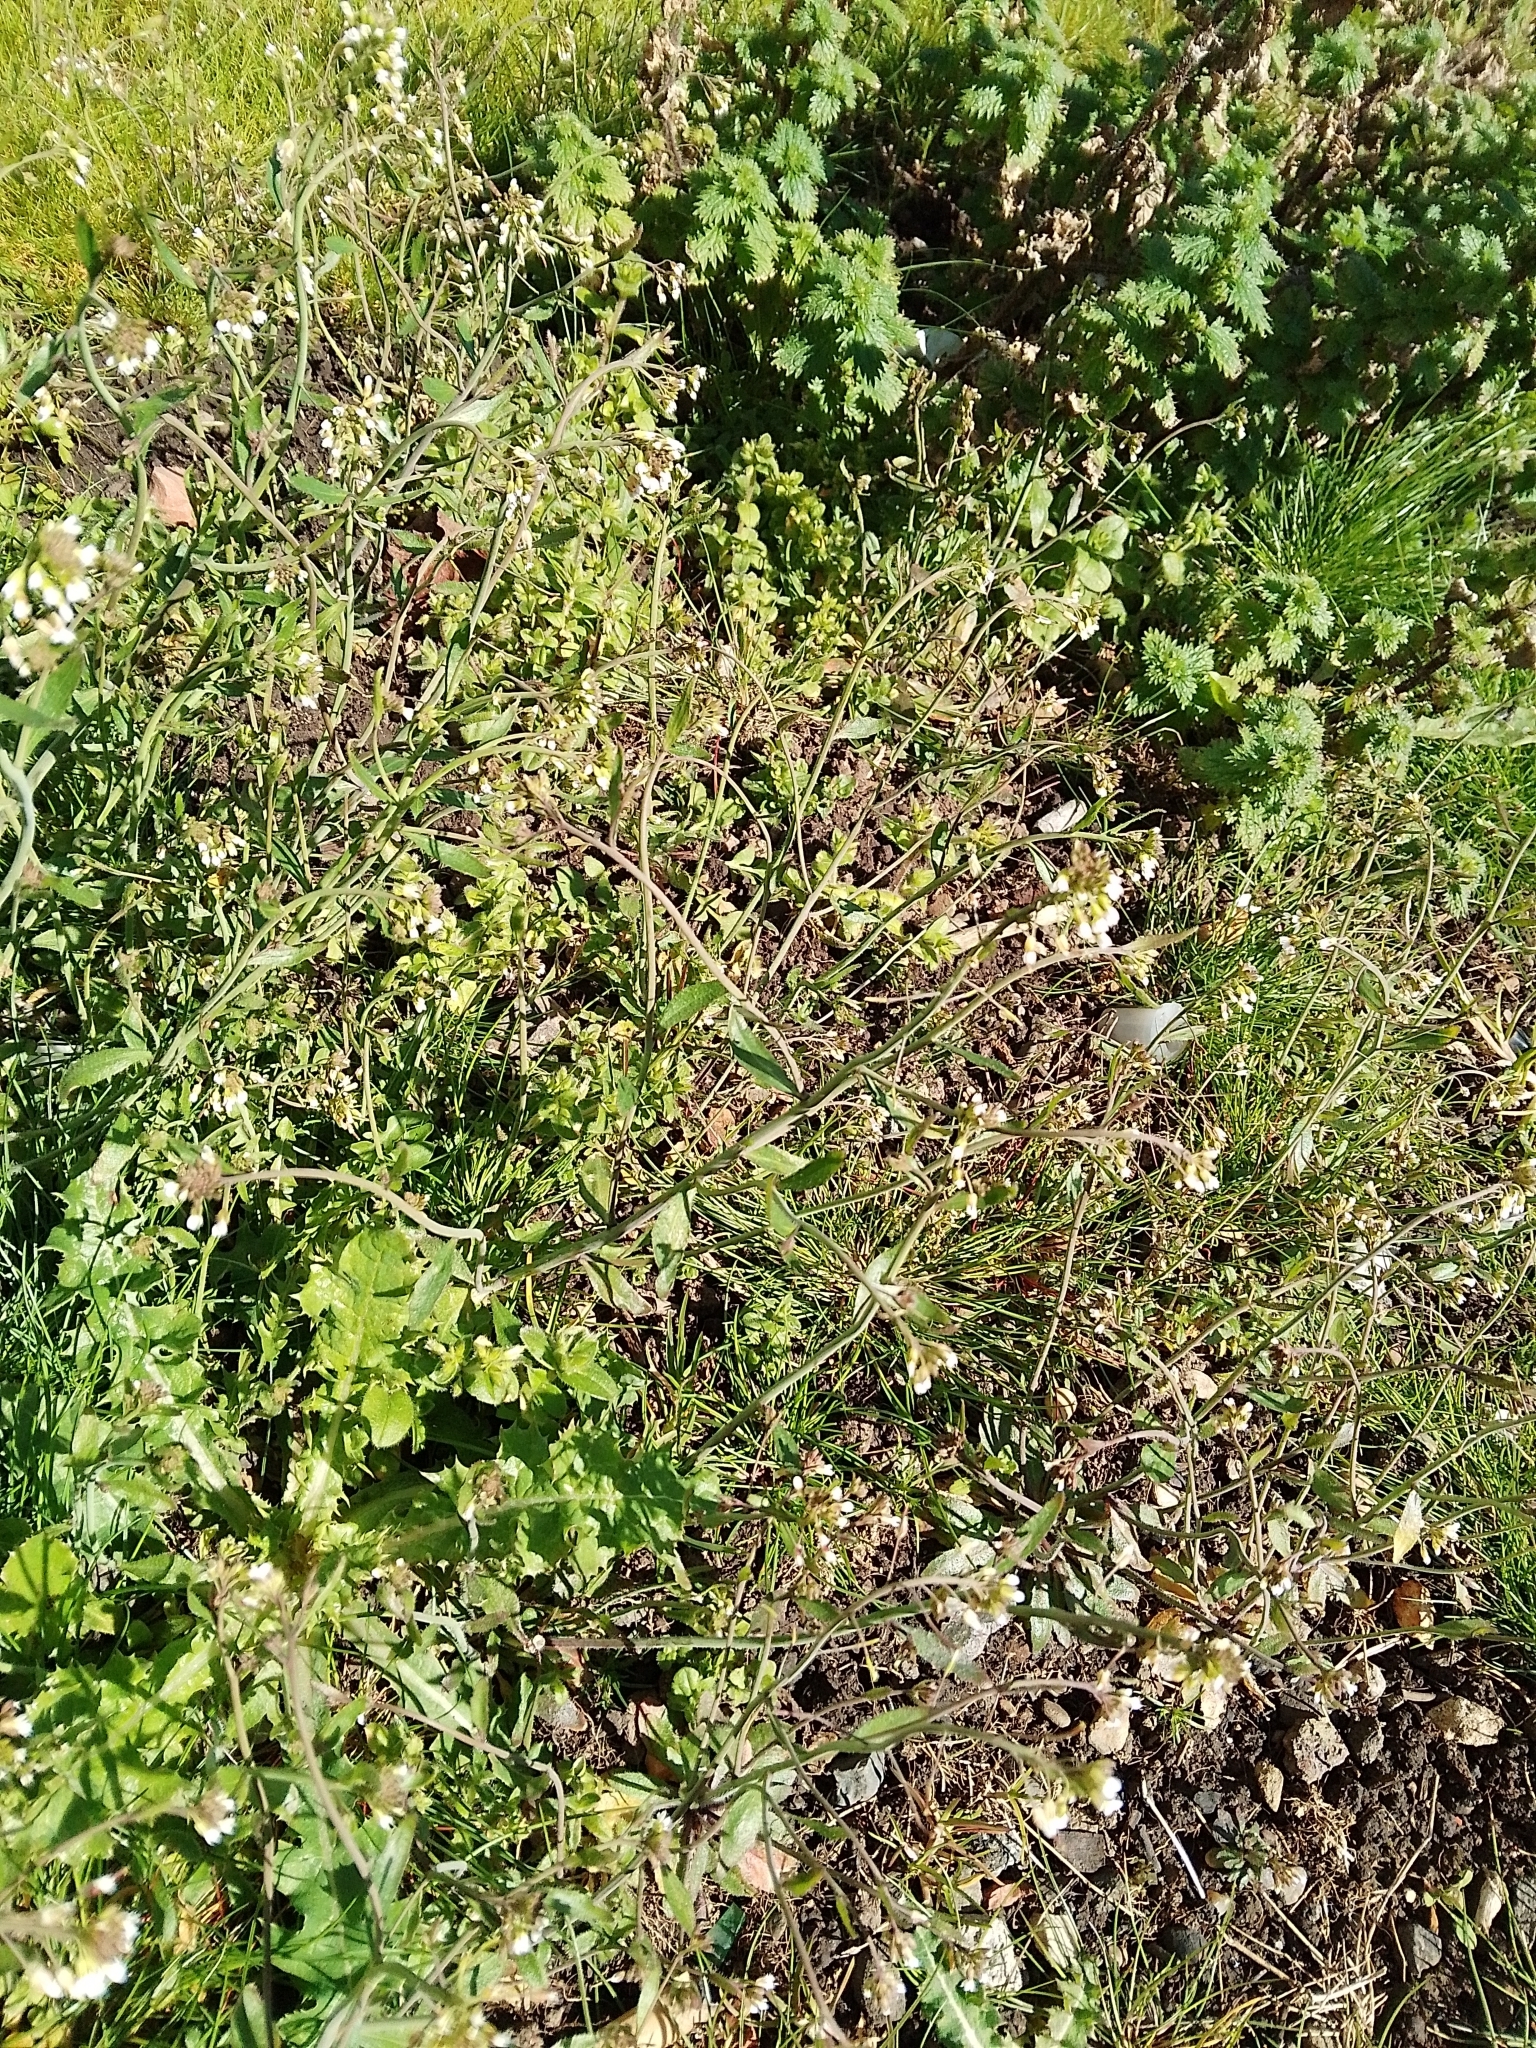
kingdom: Plantae
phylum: Tracheophyta
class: Magnoliopsida
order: Brassicales
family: Brassicaceae
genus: Arabidopsis
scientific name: Arabidopsis thaliana
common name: Thale cress
